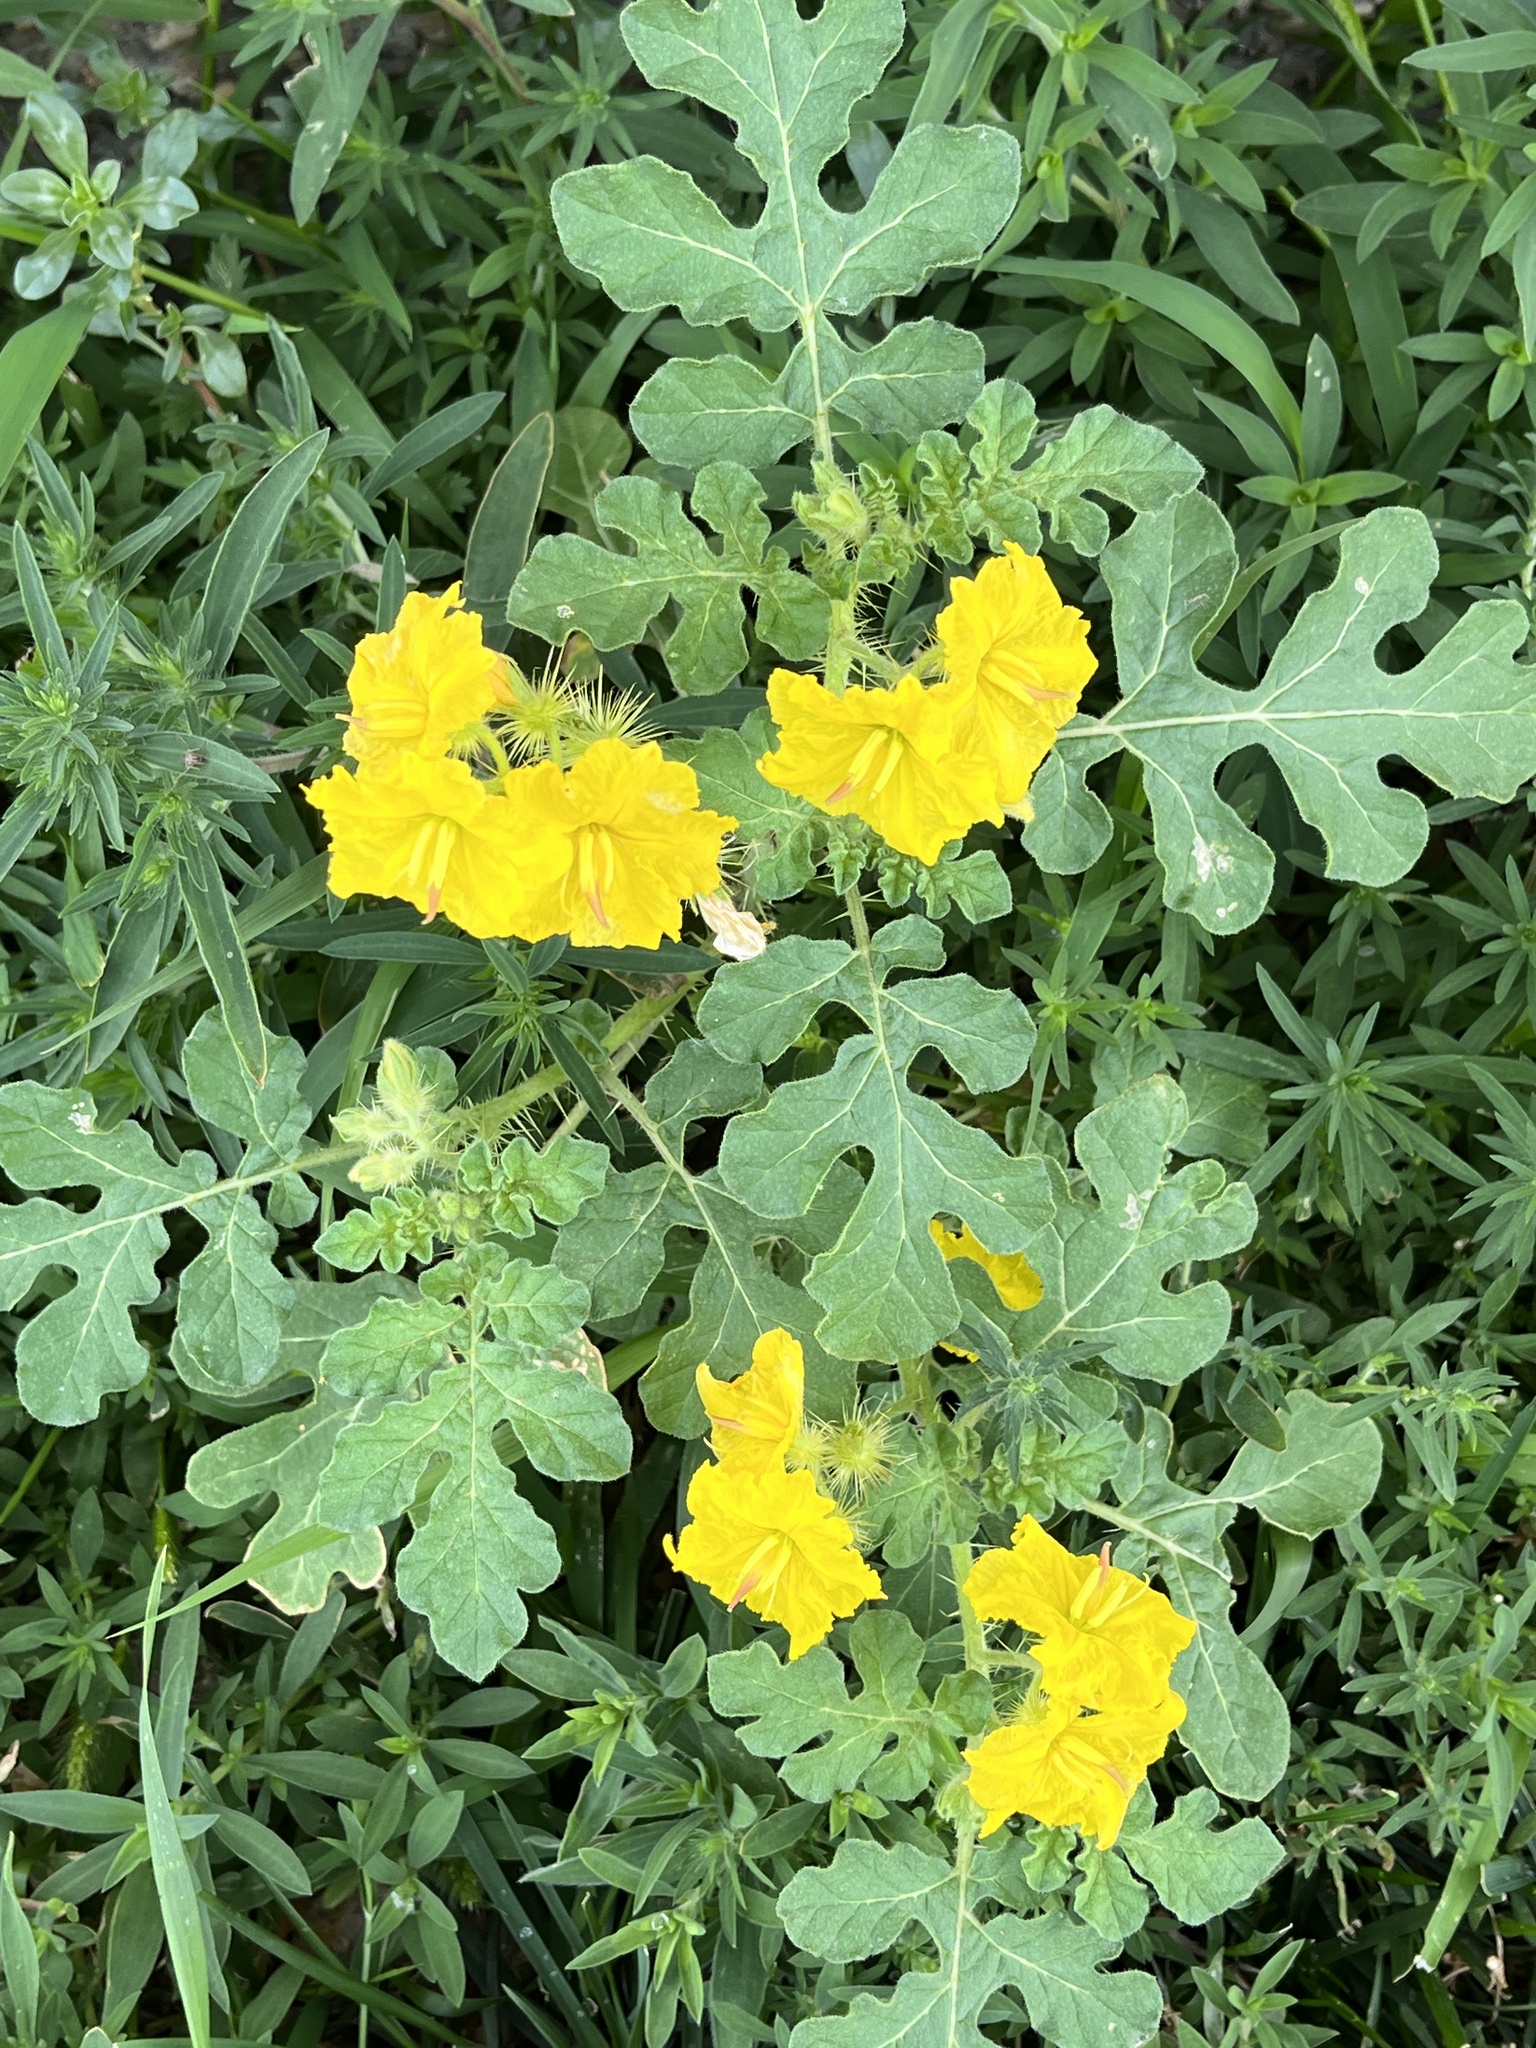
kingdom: Plantae
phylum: Tracheophyta
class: Magnoliopsida
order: Solanales
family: Solanaceae
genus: Solanum
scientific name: Solanum angustifolium
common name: Buffalobur nightshade
